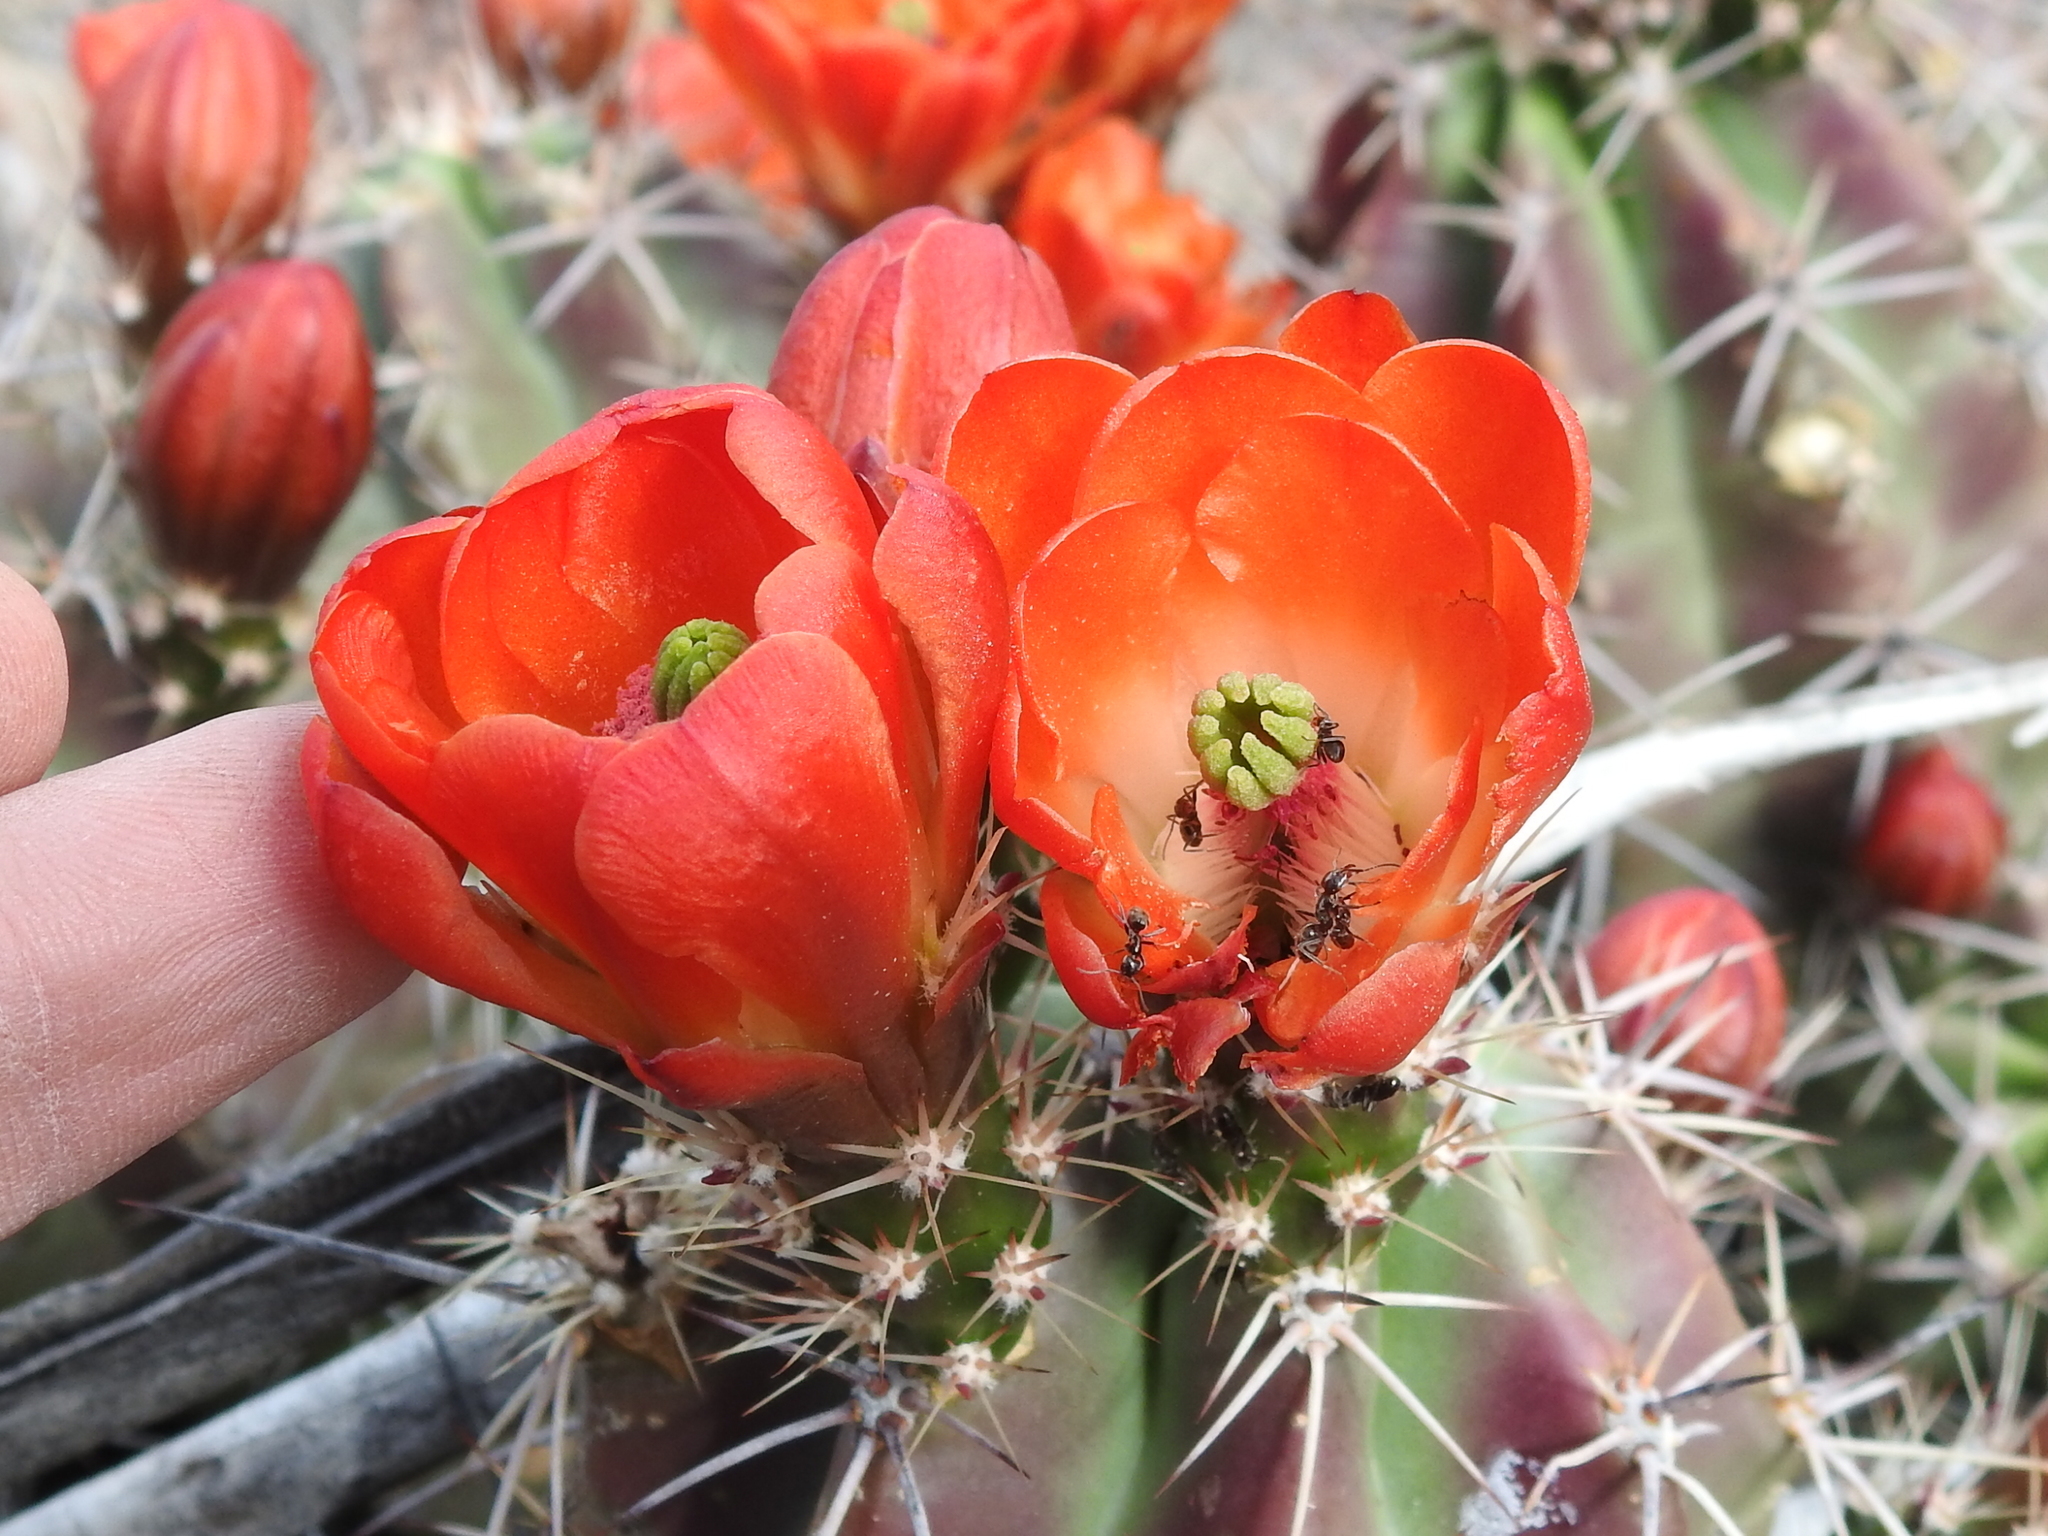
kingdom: Plantae
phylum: Tracheophyta
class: Magnoliopsida
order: Caryophyllales
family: Cactaceae
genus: Echinocereus
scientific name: Echinocereus coccineus
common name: Scarlet hedgehog cactus
